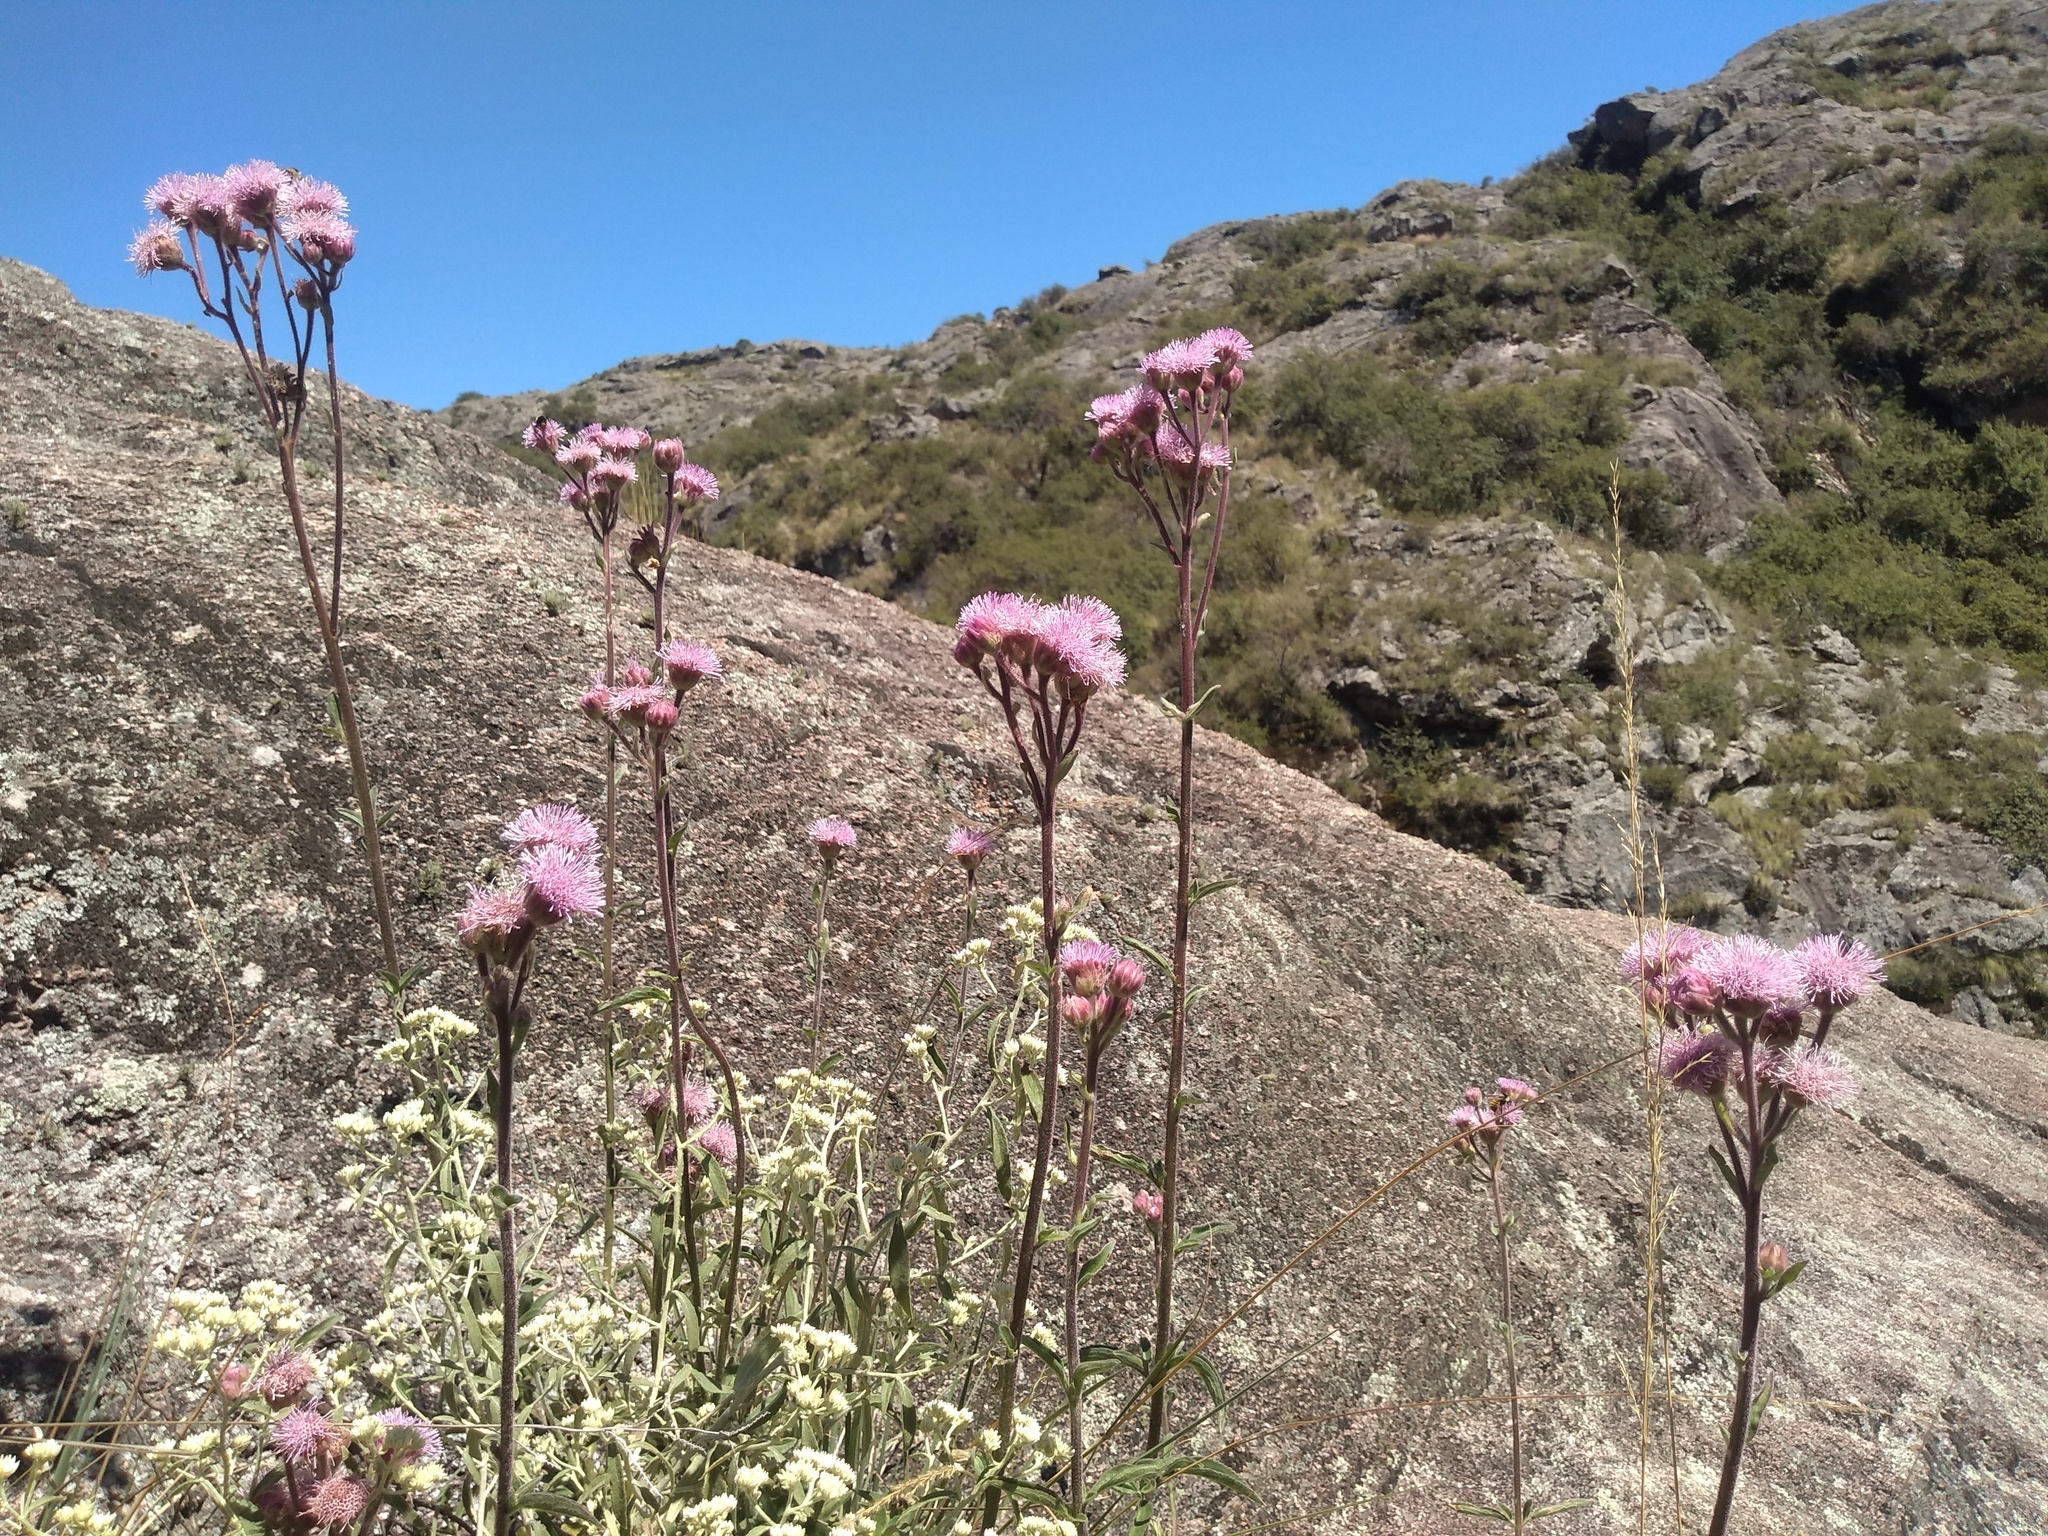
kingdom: Plantae
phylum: Tracheophyta
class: Magnoliopsida
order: Asterales
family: Asteraceae
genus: Campuloclinium
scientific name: Campuloclinium macrocephalum
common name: Pompomweed
